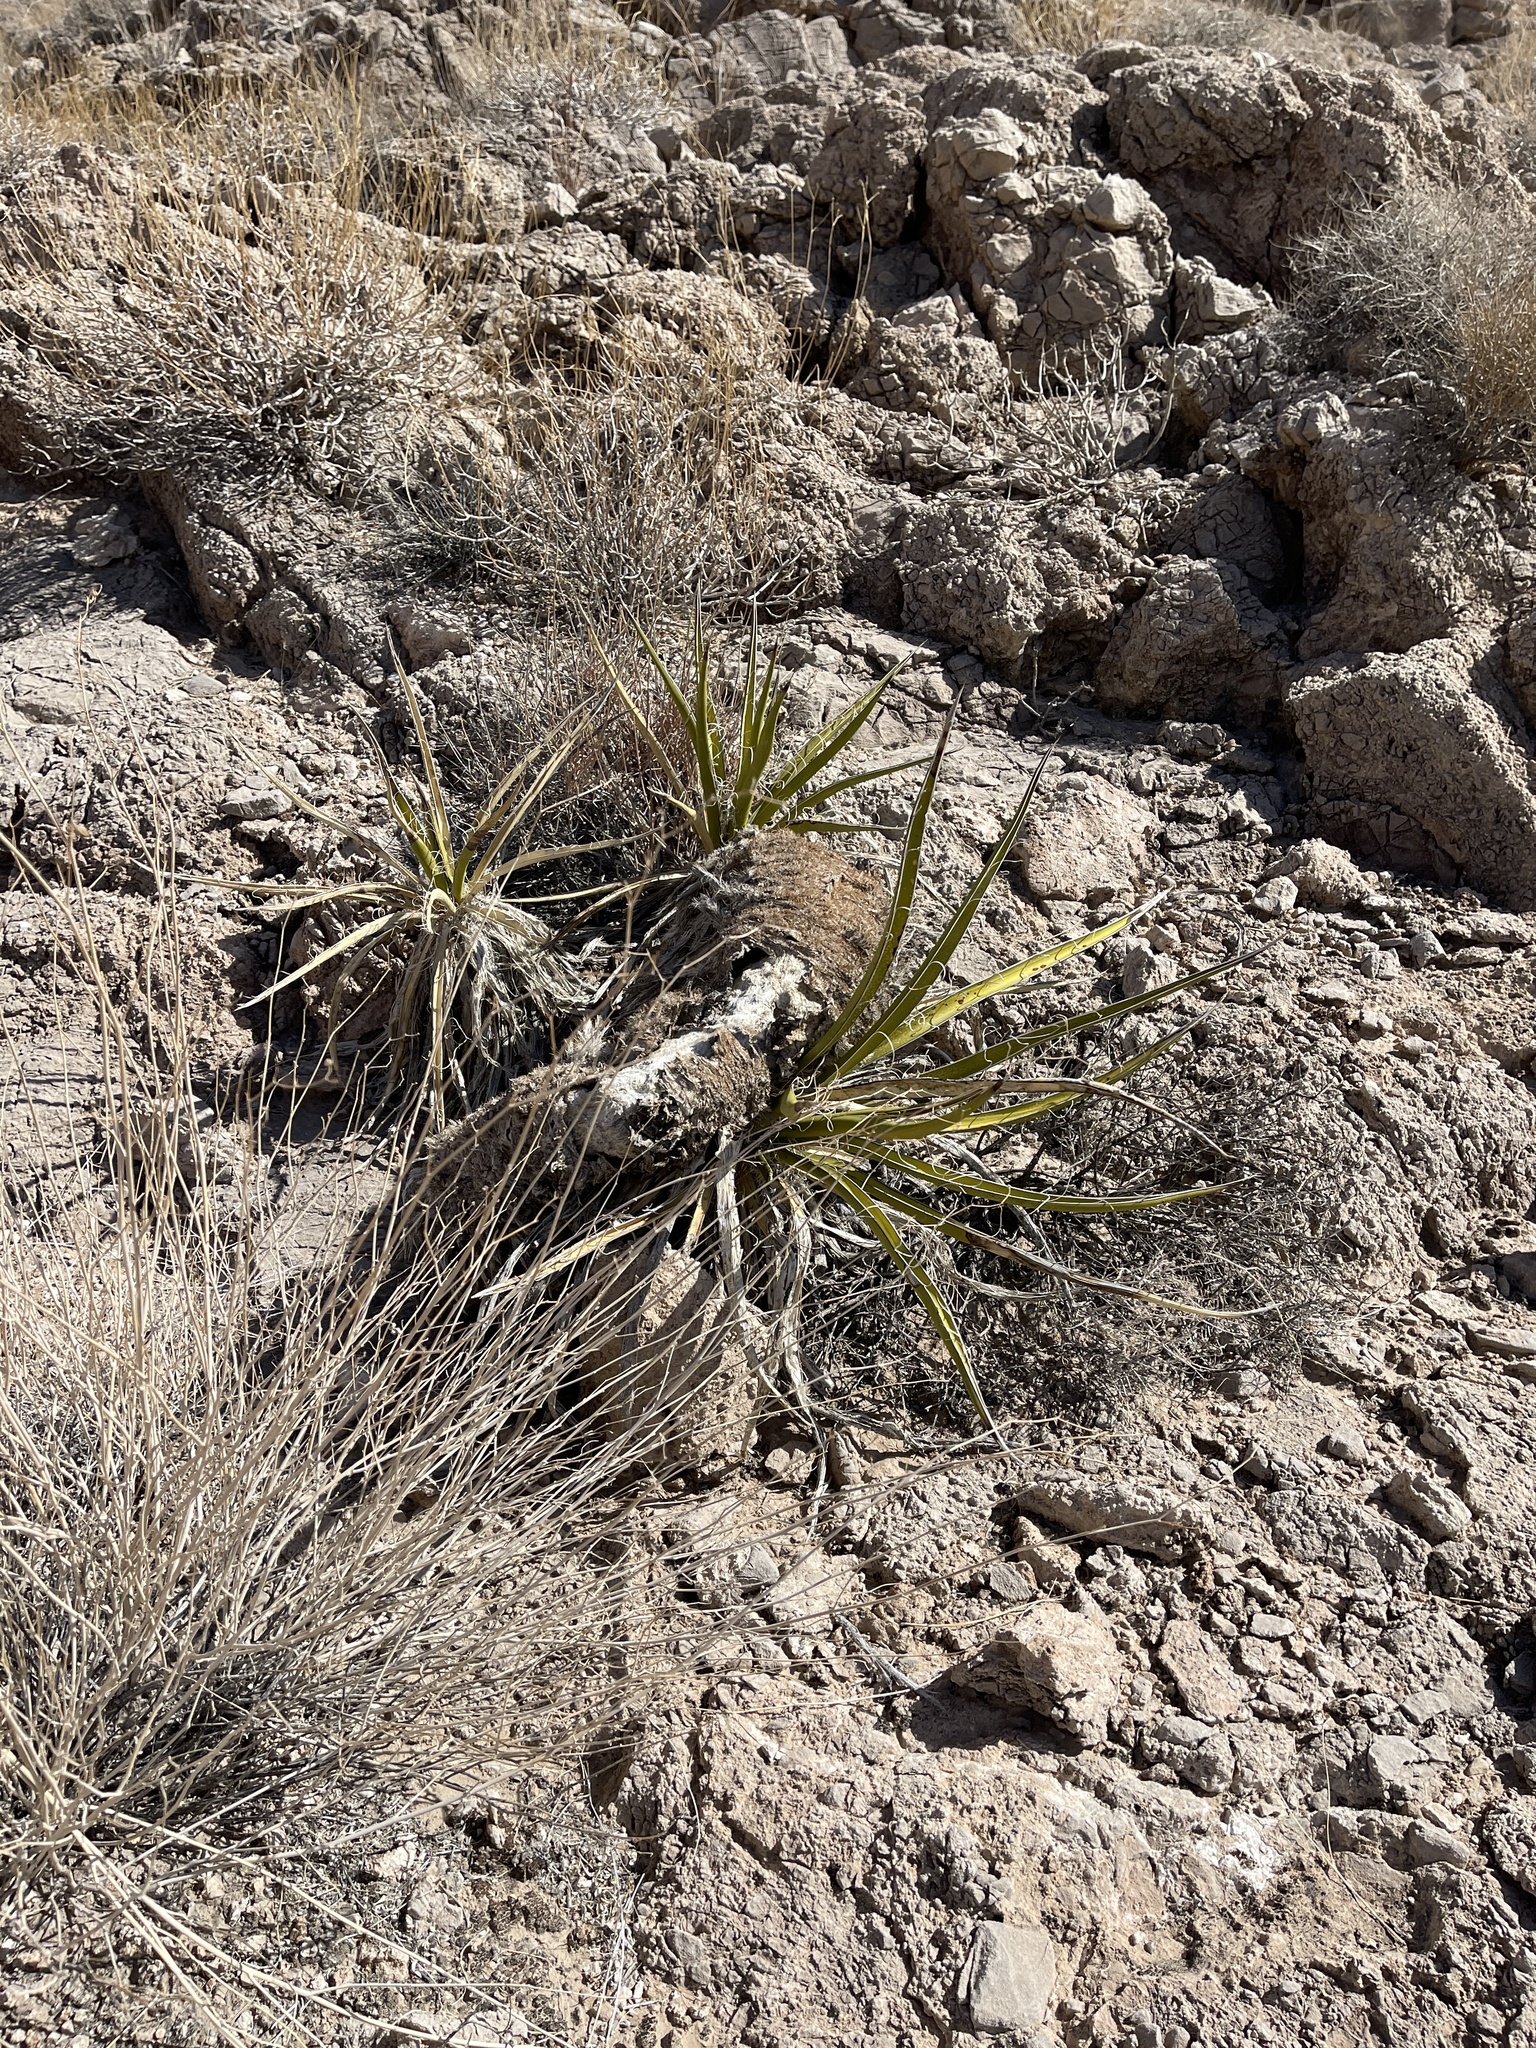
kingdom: Plantae
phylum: Tracheophyta
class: Liliopsida
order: Asparagales
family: Asparagaceae
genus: Yucca
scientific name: Yucca schidigera
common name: Mojave yucca
